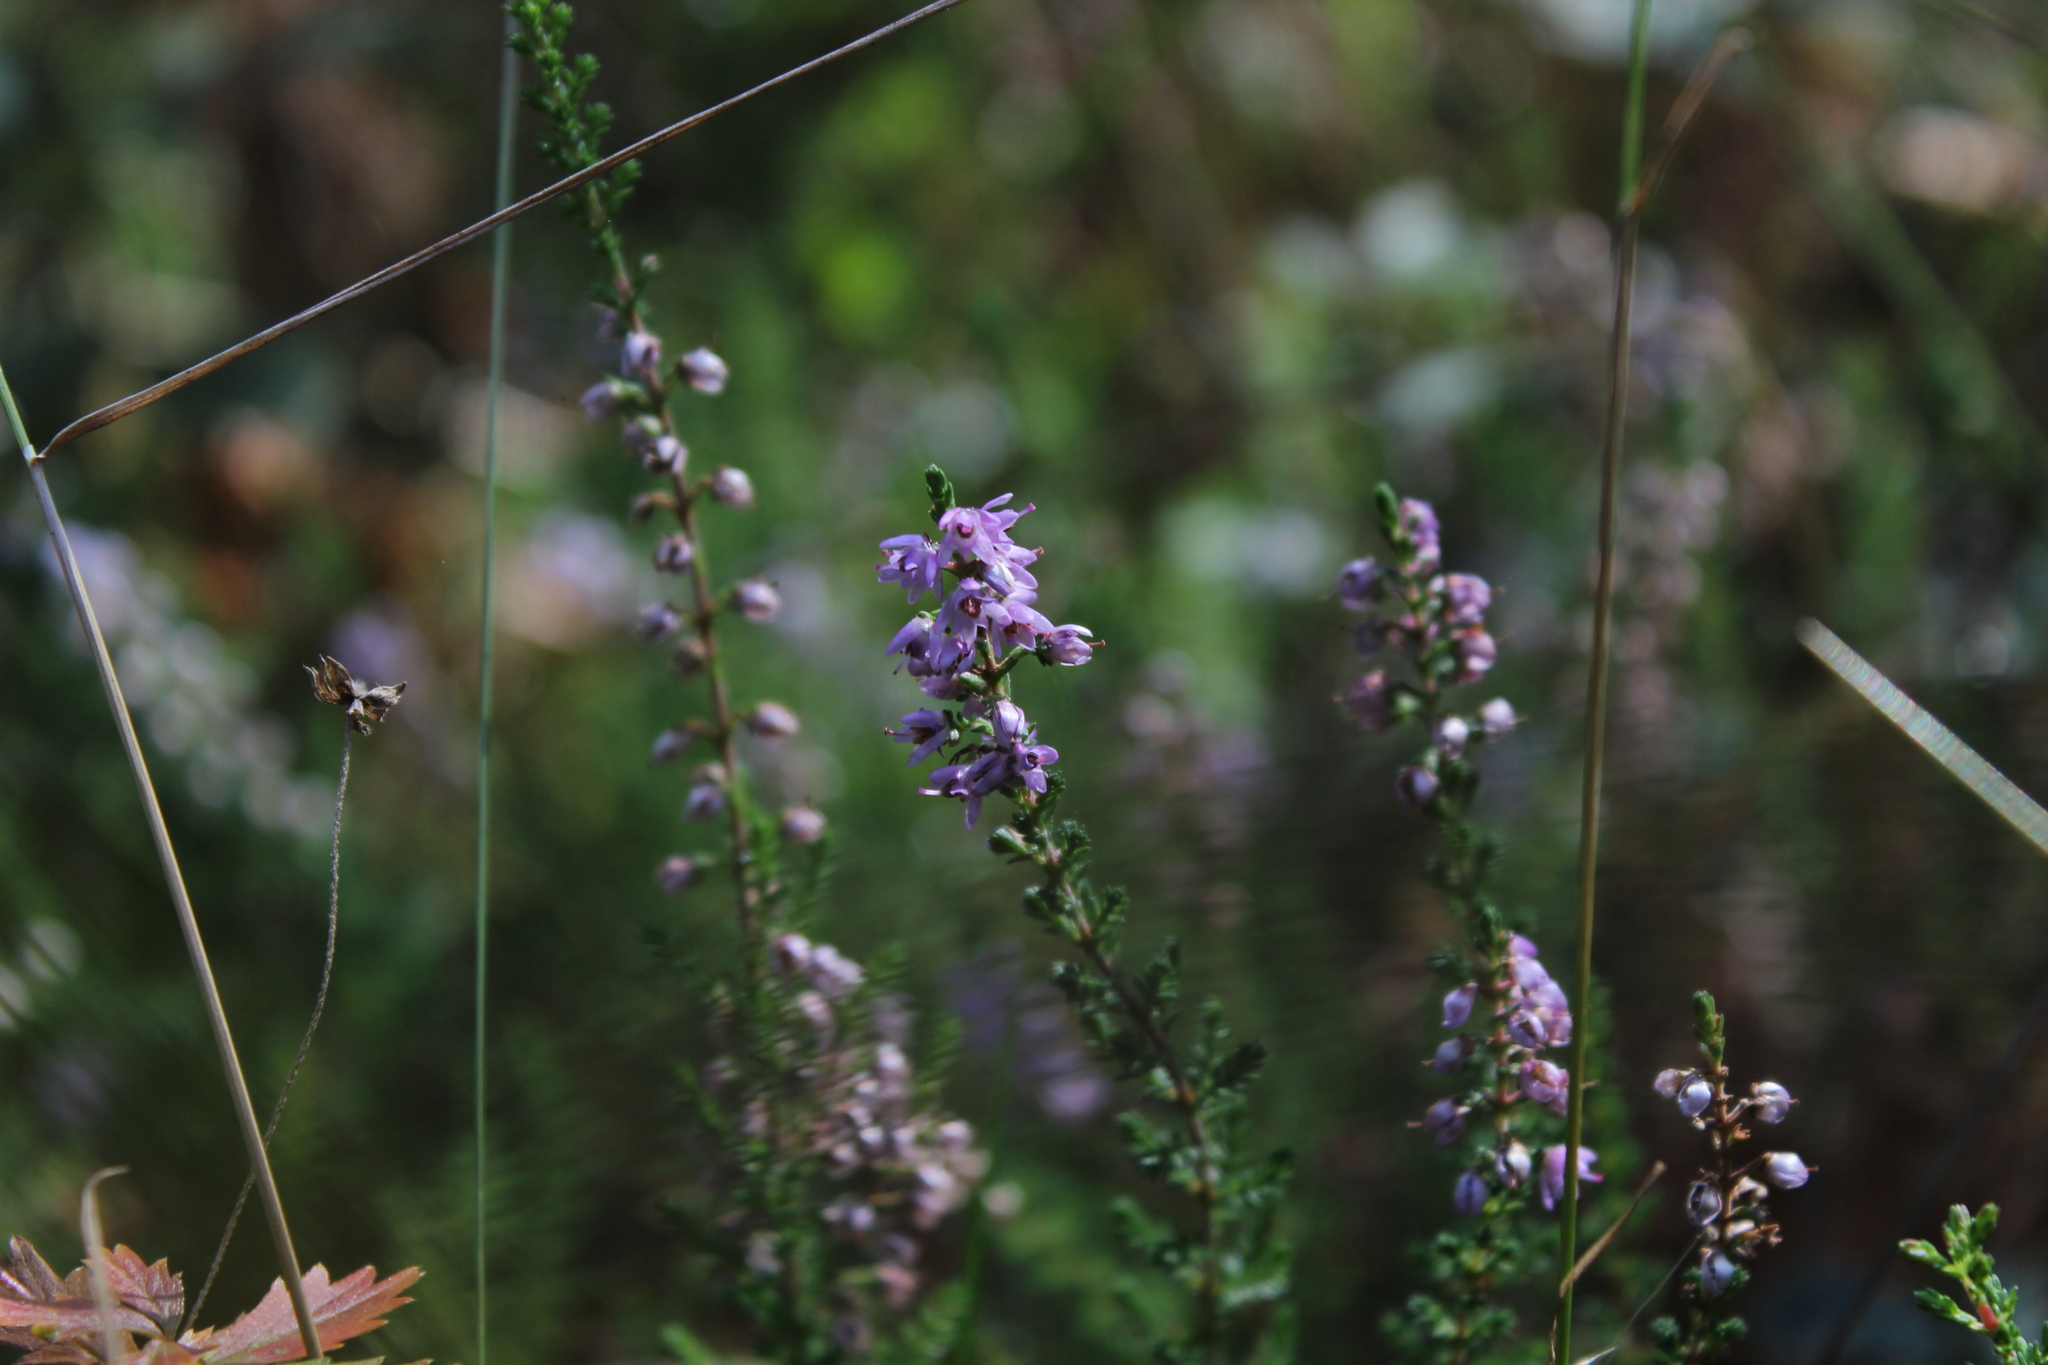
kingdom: Plantae
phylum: Tracheophyta
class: Magnoliopsida
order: Ericales
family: Ericaceae
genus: Calluna
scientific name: Calluna vulgaris
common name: Heather
